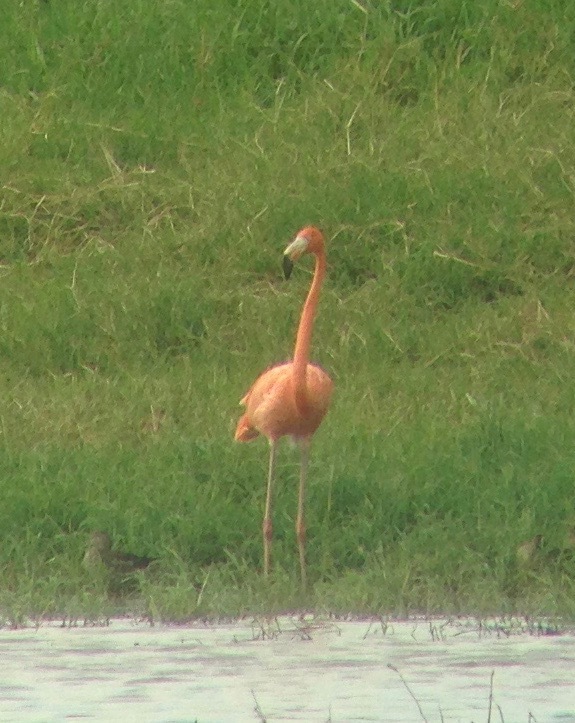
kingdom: Animalia
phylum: Chordata
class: Aves
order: Phoenicopteriformes
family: Phoenicopteridae
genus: Phoenicopterus
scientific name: Phoenicopterus ruber
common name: American flamingo
